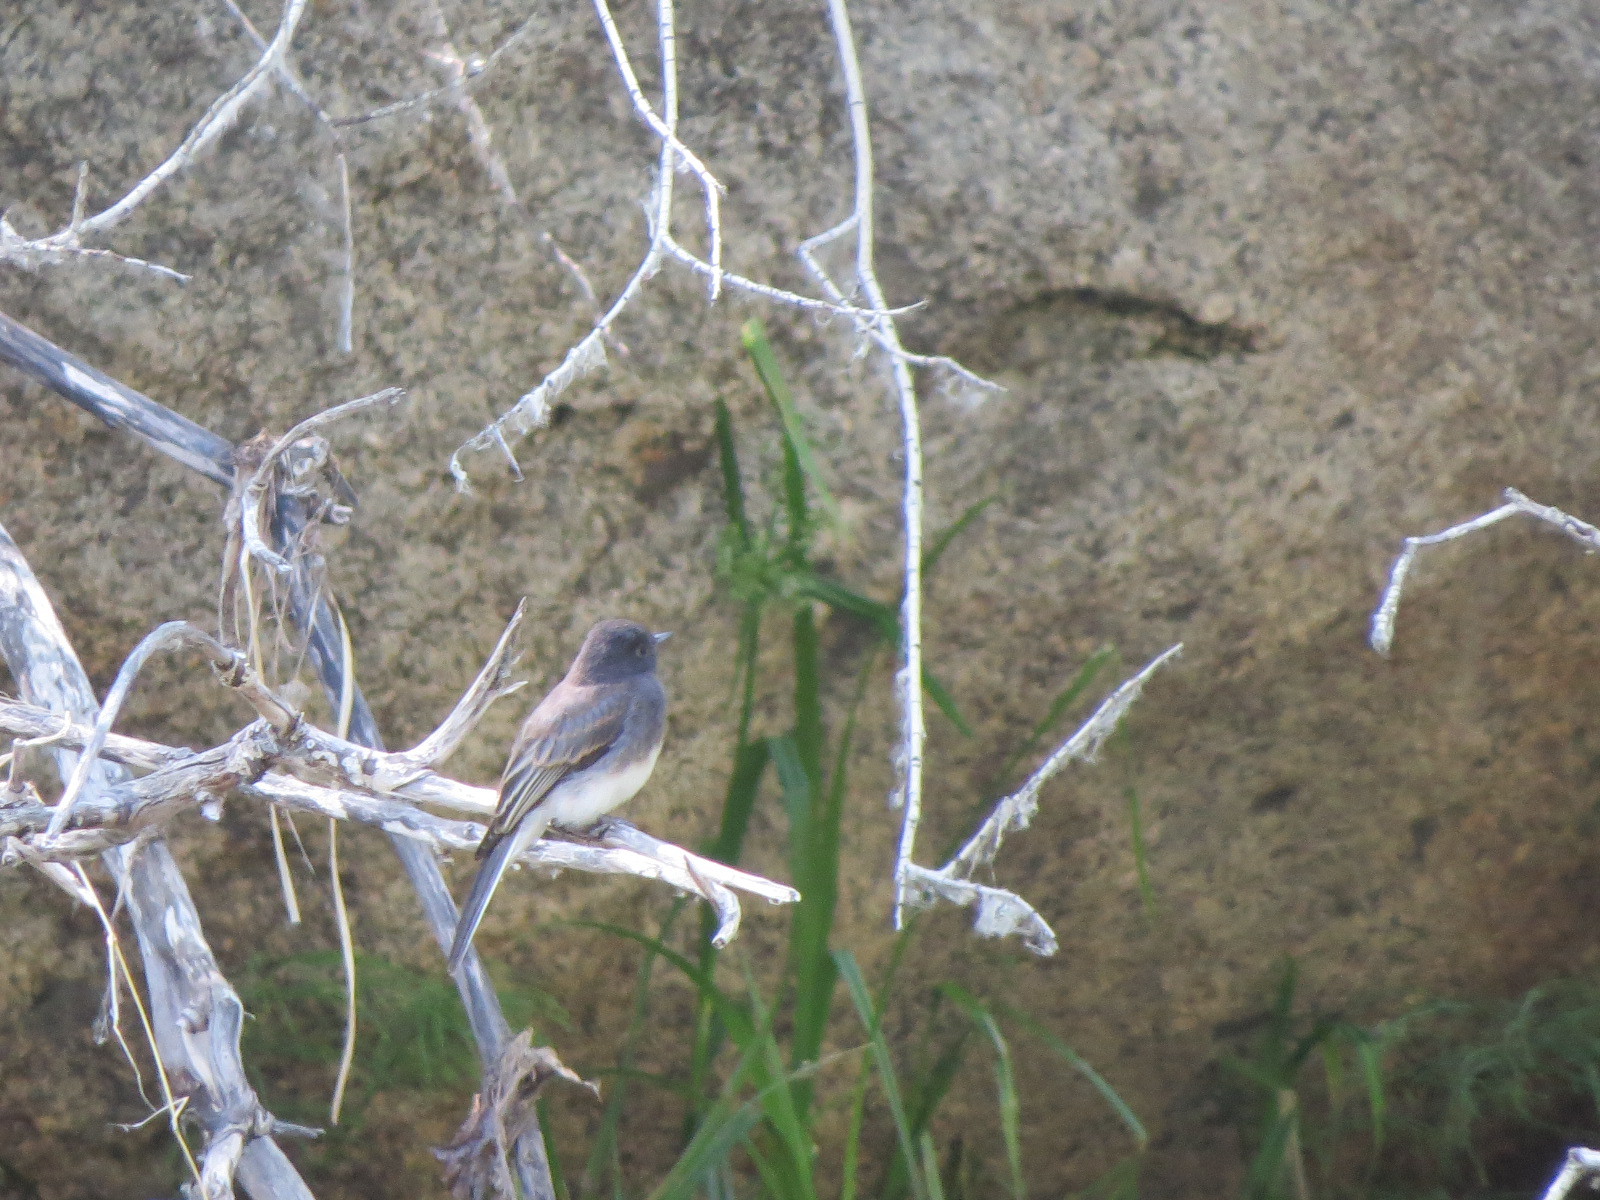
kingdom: Animalia
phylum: Chordata
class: Aves
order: Passeriformes
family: Tyrannidae
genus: Sayornis
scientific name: Sayornis nigricans
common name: Black phoebe
